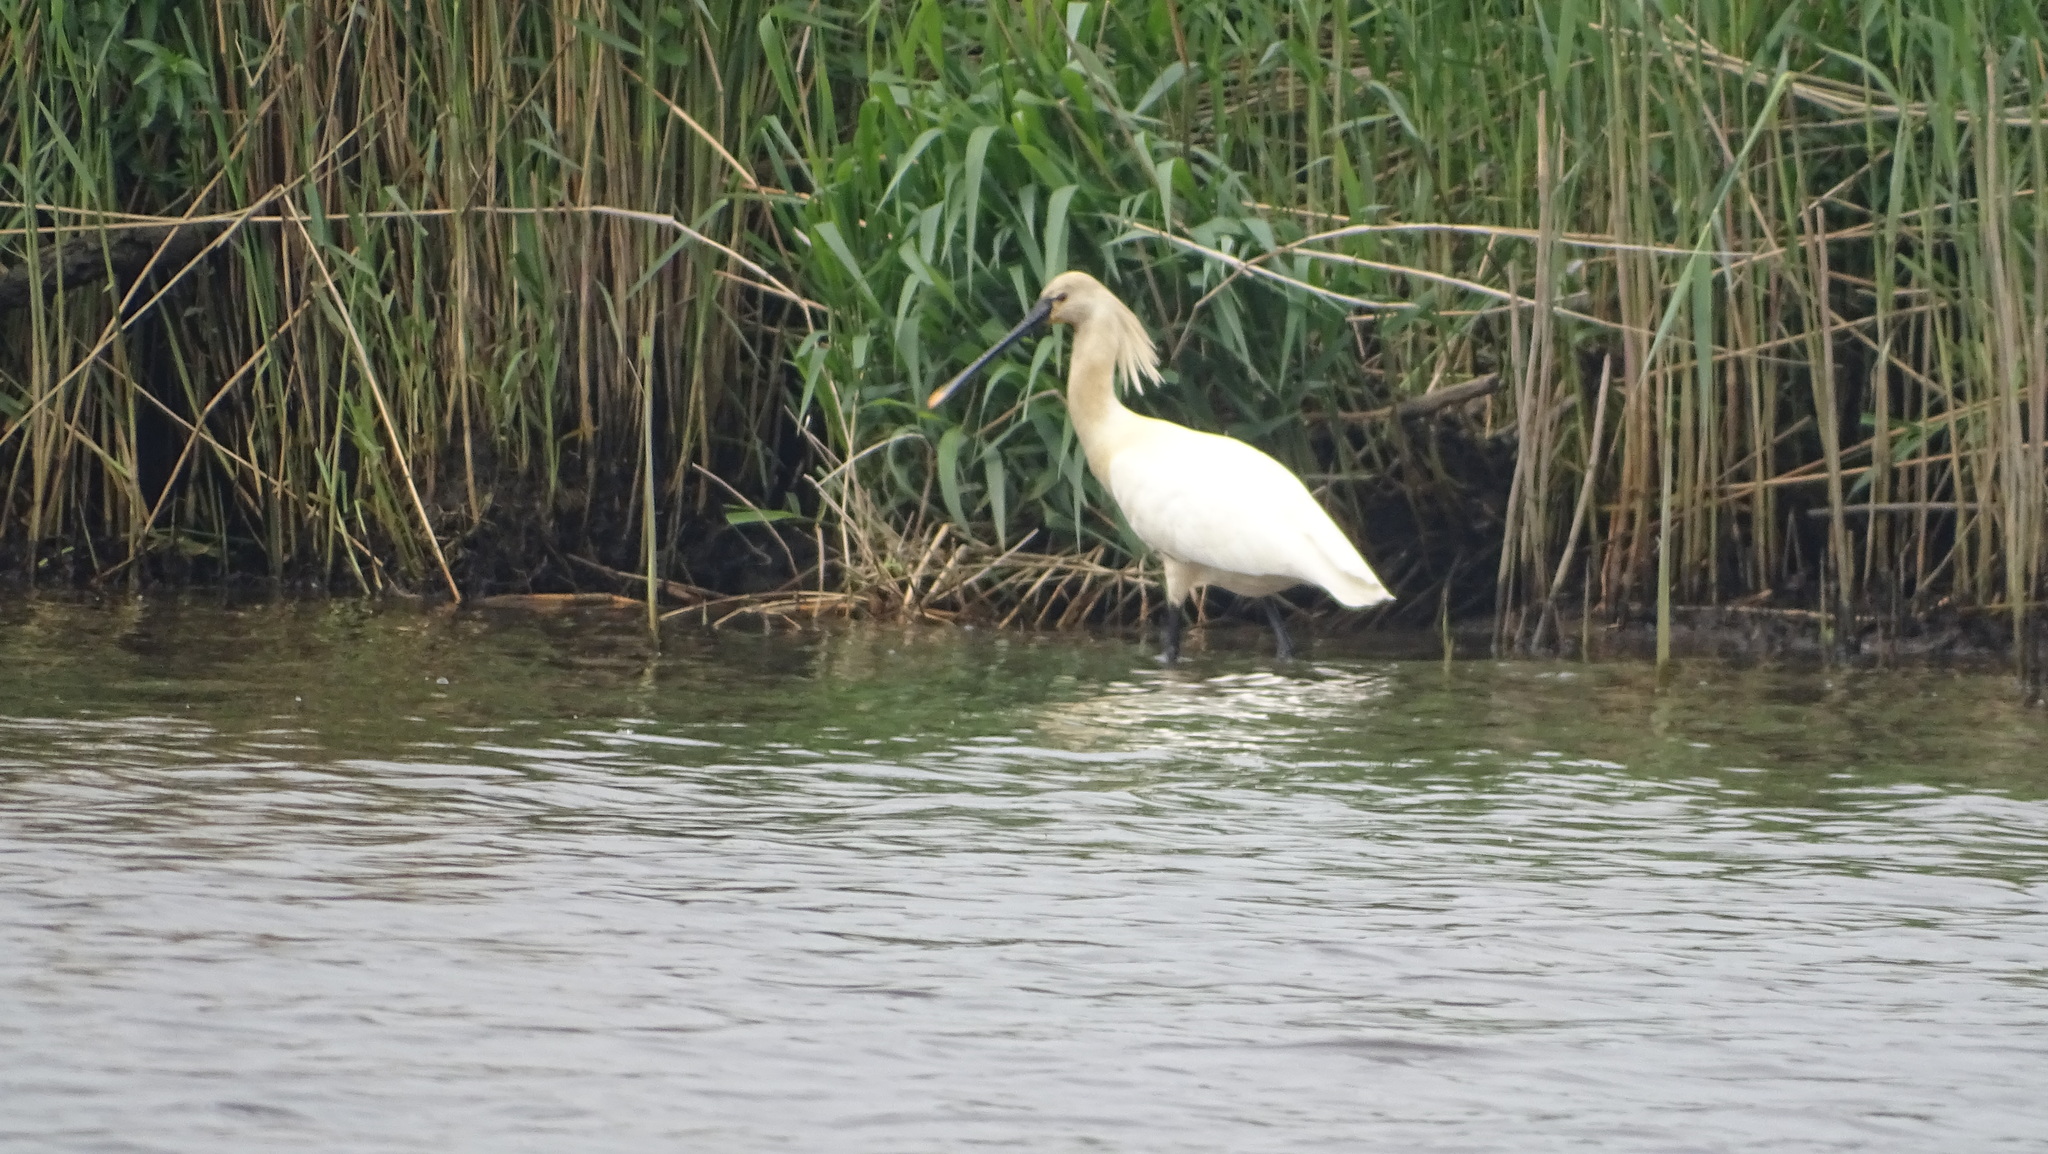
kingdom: Animalia
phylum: Chordata
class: Aves
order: Pelecaniformes
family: Threskiornithidae
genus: Platalea
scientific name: Platalea leucorodia
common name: Eurasian spoonbill
